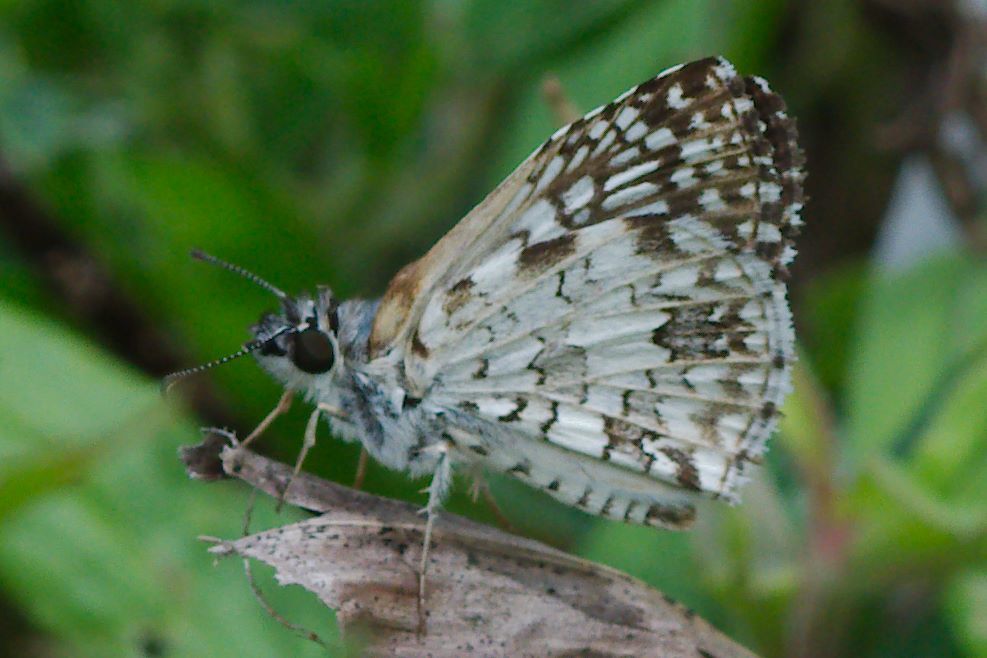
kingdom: Animalia
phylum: Arthropoda
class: Insecta
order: Lepidoptera
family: Hesperiidae
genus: Pyrgus
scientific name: Pyrgus oileus
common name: Tropical checkered-skipper
